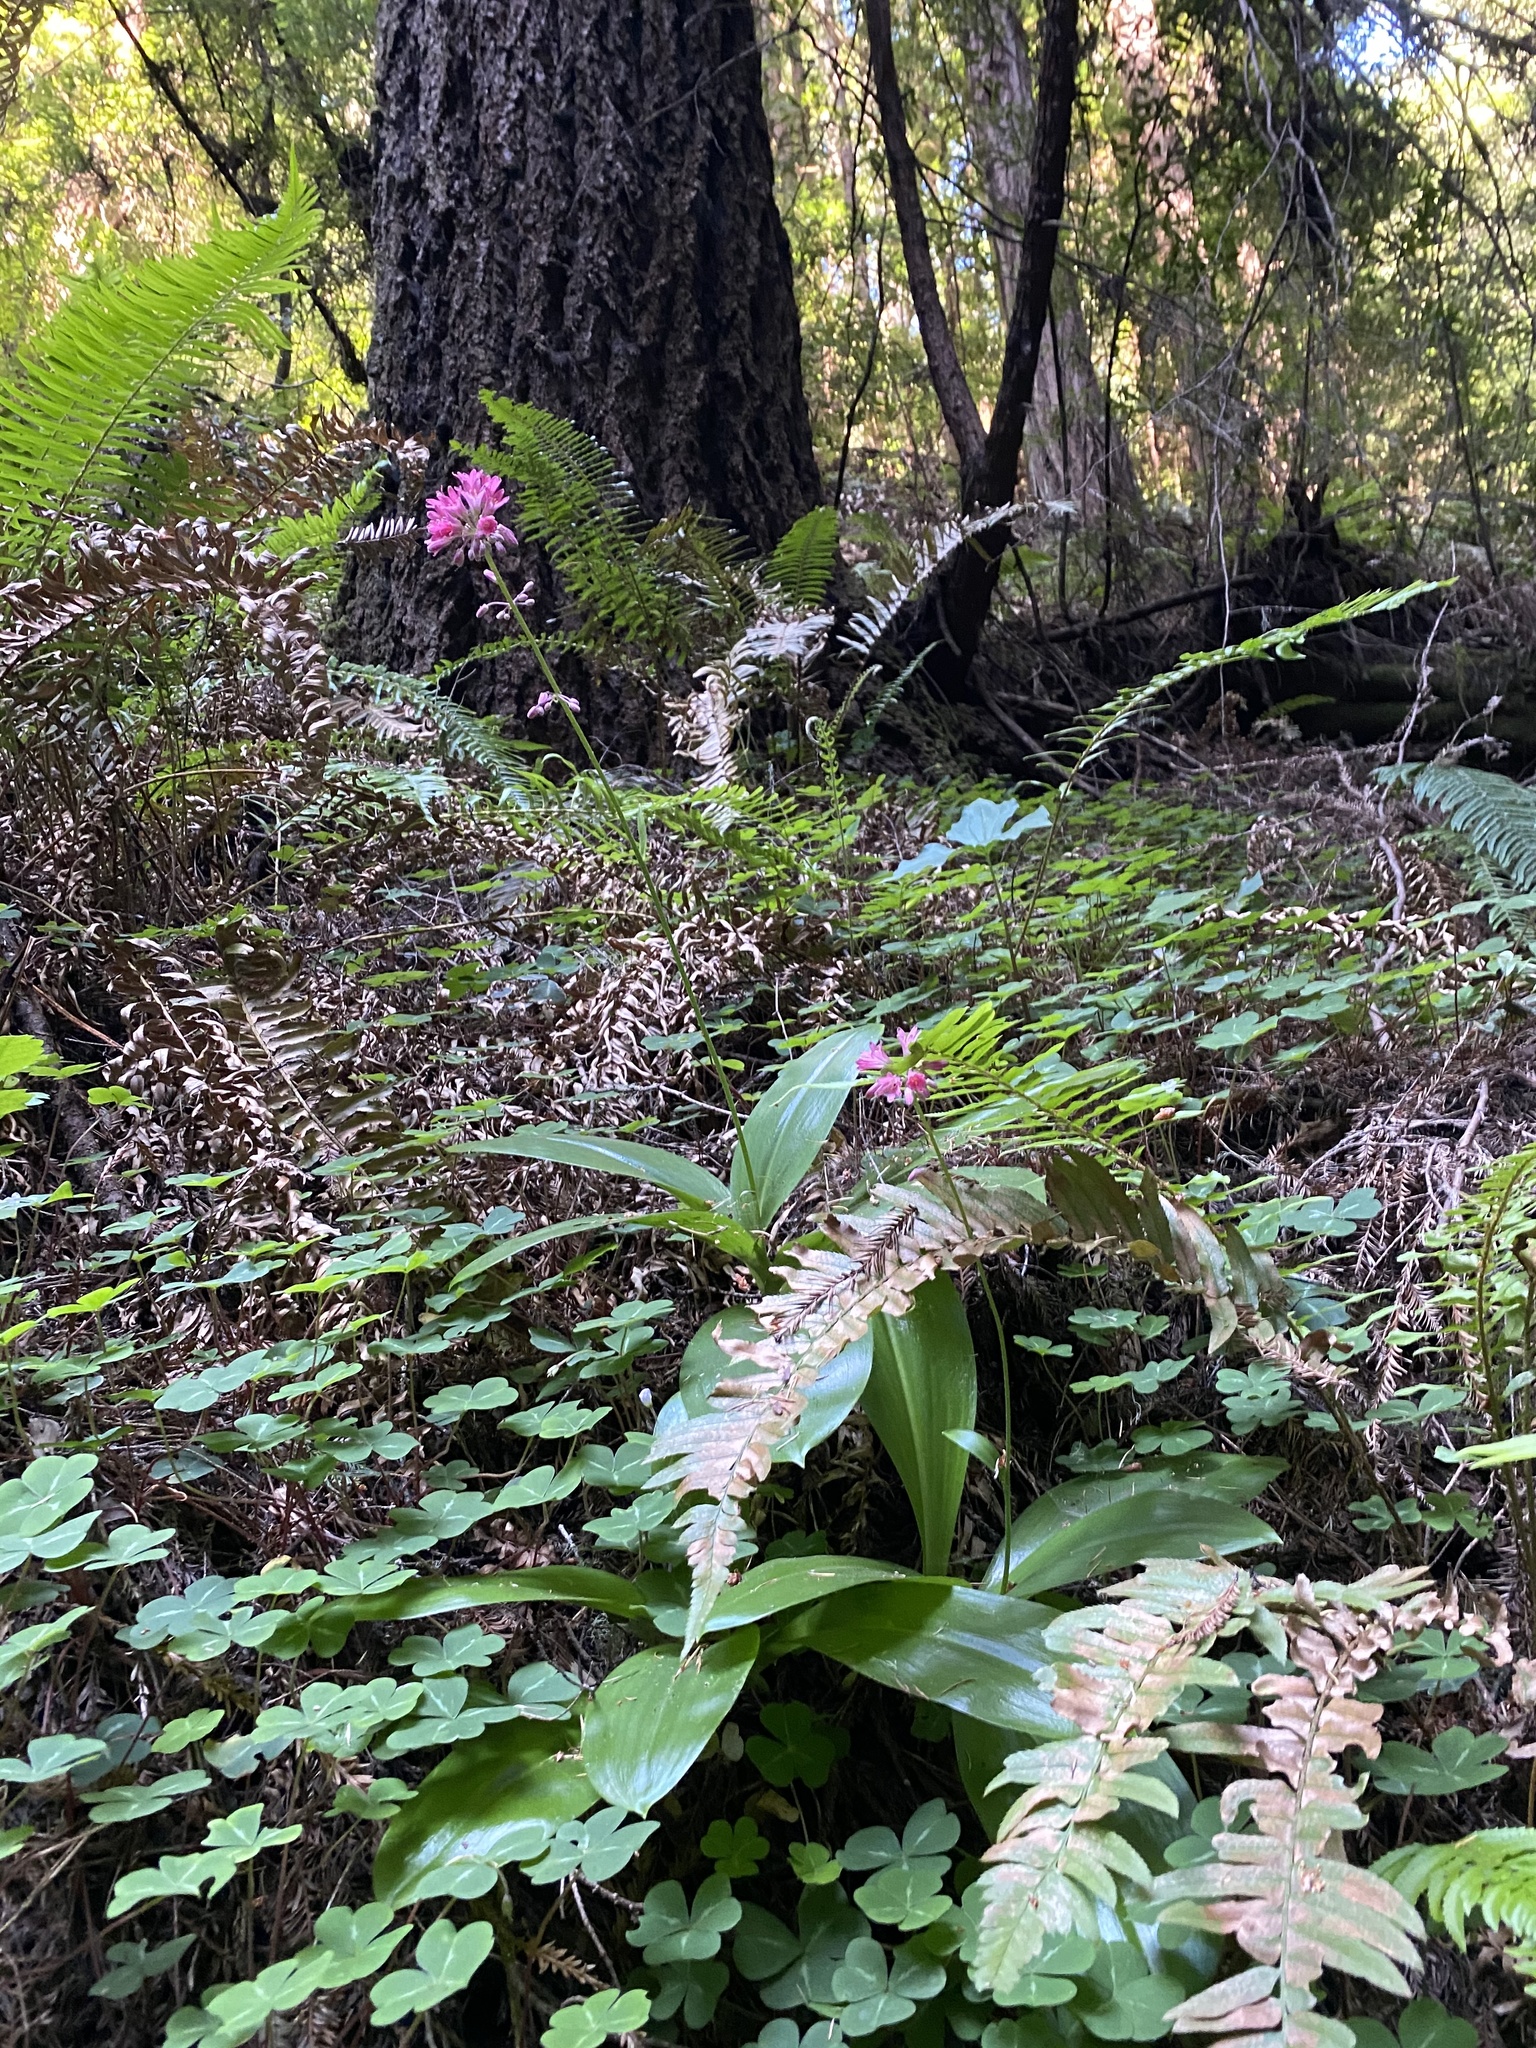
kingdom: Plantae
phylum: Tracheophyta
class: Liliopsida
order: Liliales
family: Liliaceae
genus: Clintonia
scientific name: Clintonia andrewsiana
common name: Red clintonia
